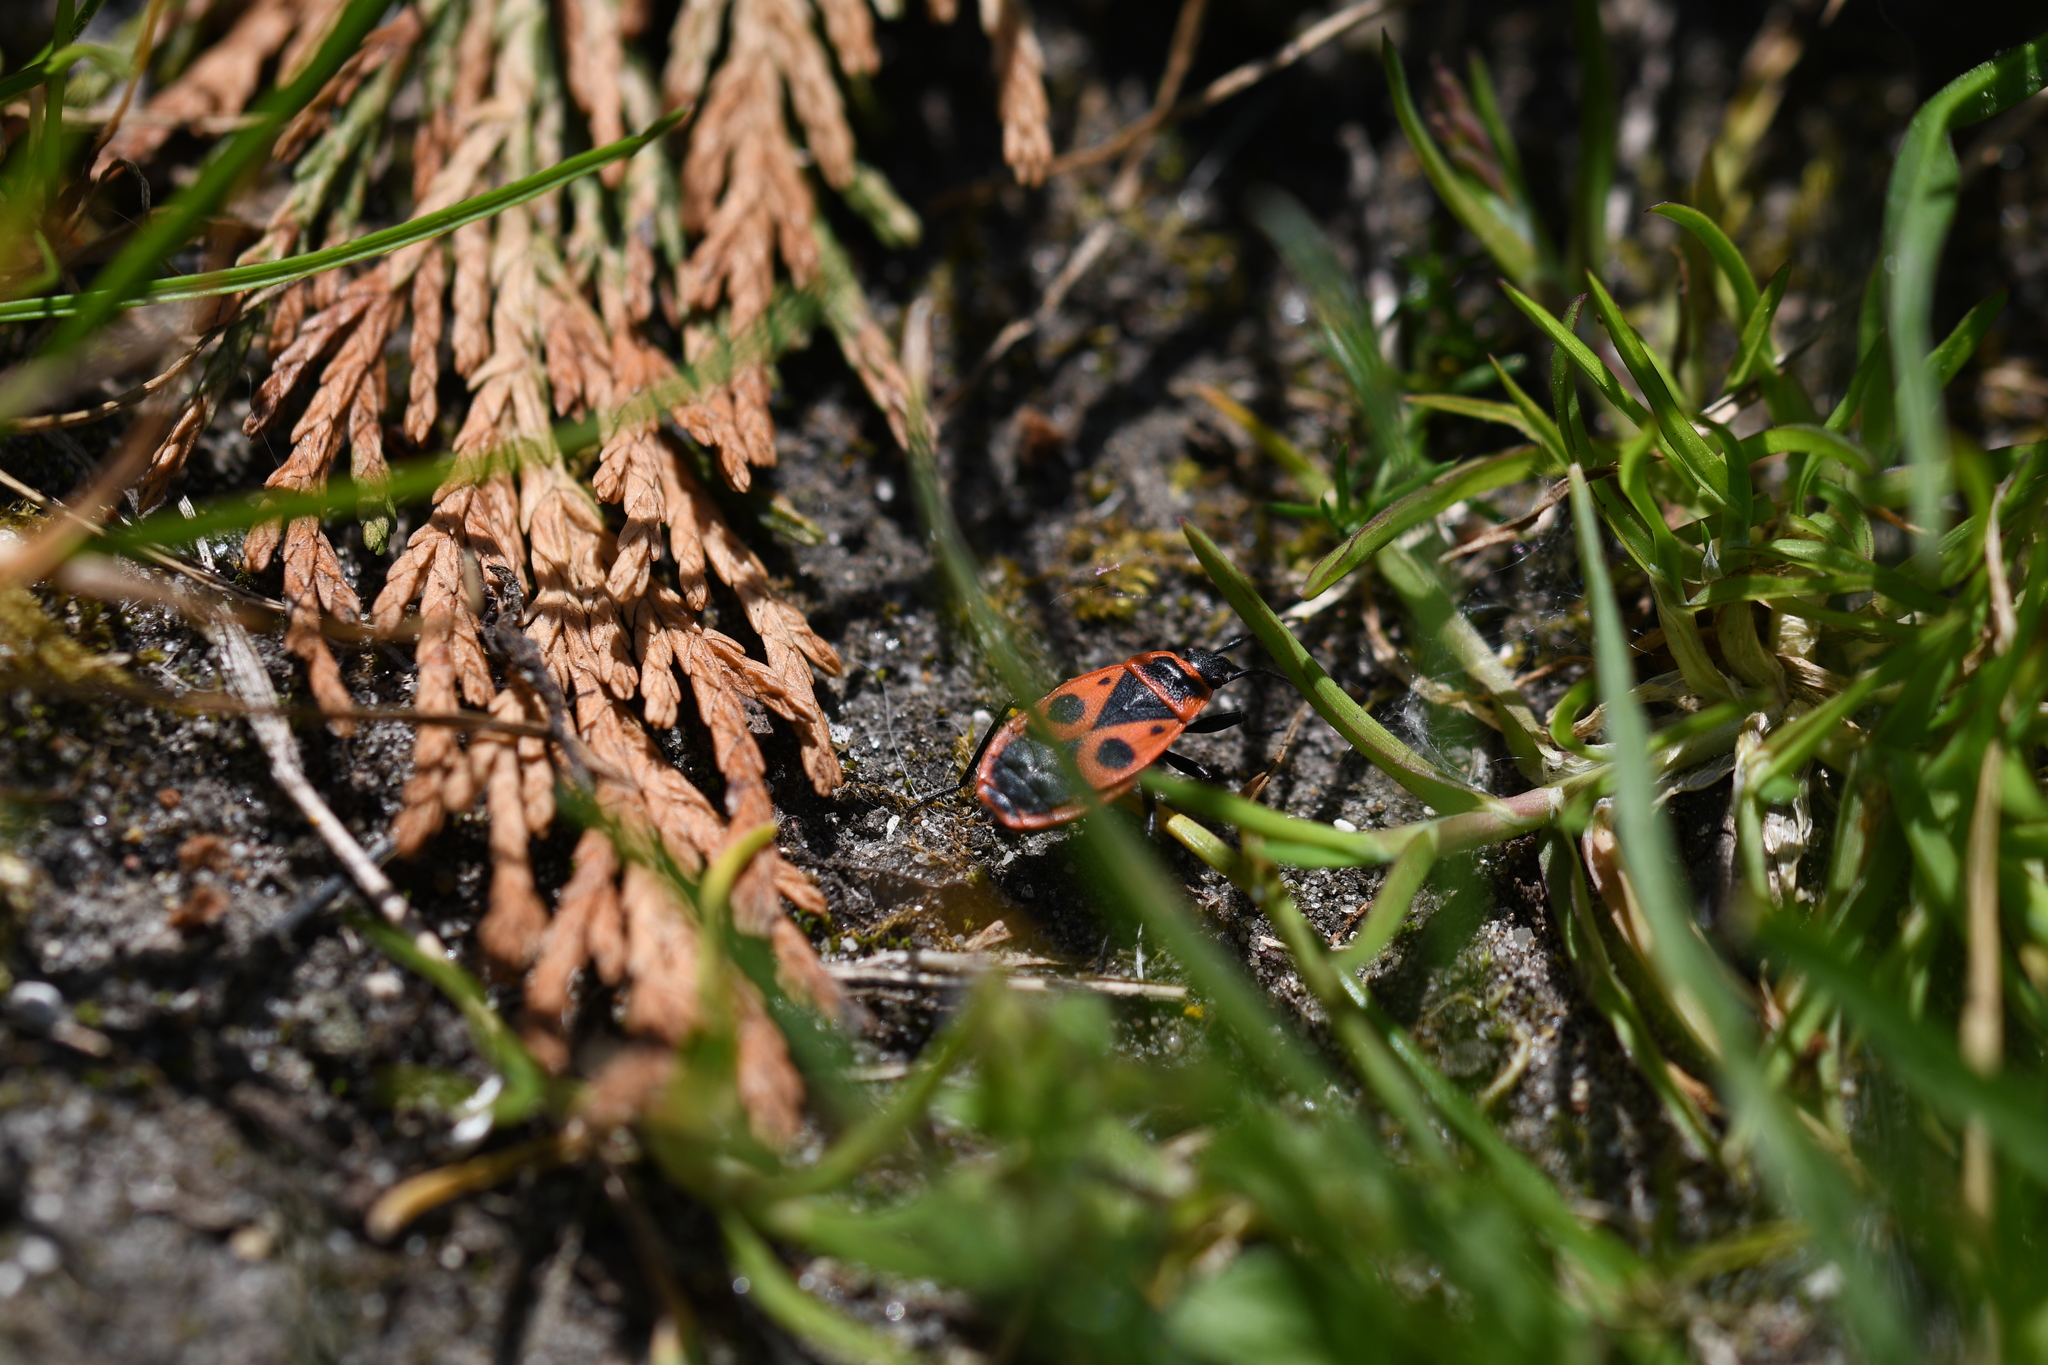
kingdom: Animalia
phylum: Arthropoda
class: Insecta
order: Hemiptera
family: Pyrrhocoridae
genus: Pyrrhocoris
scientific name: Pyrrhocoris apterus
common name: Firebug
